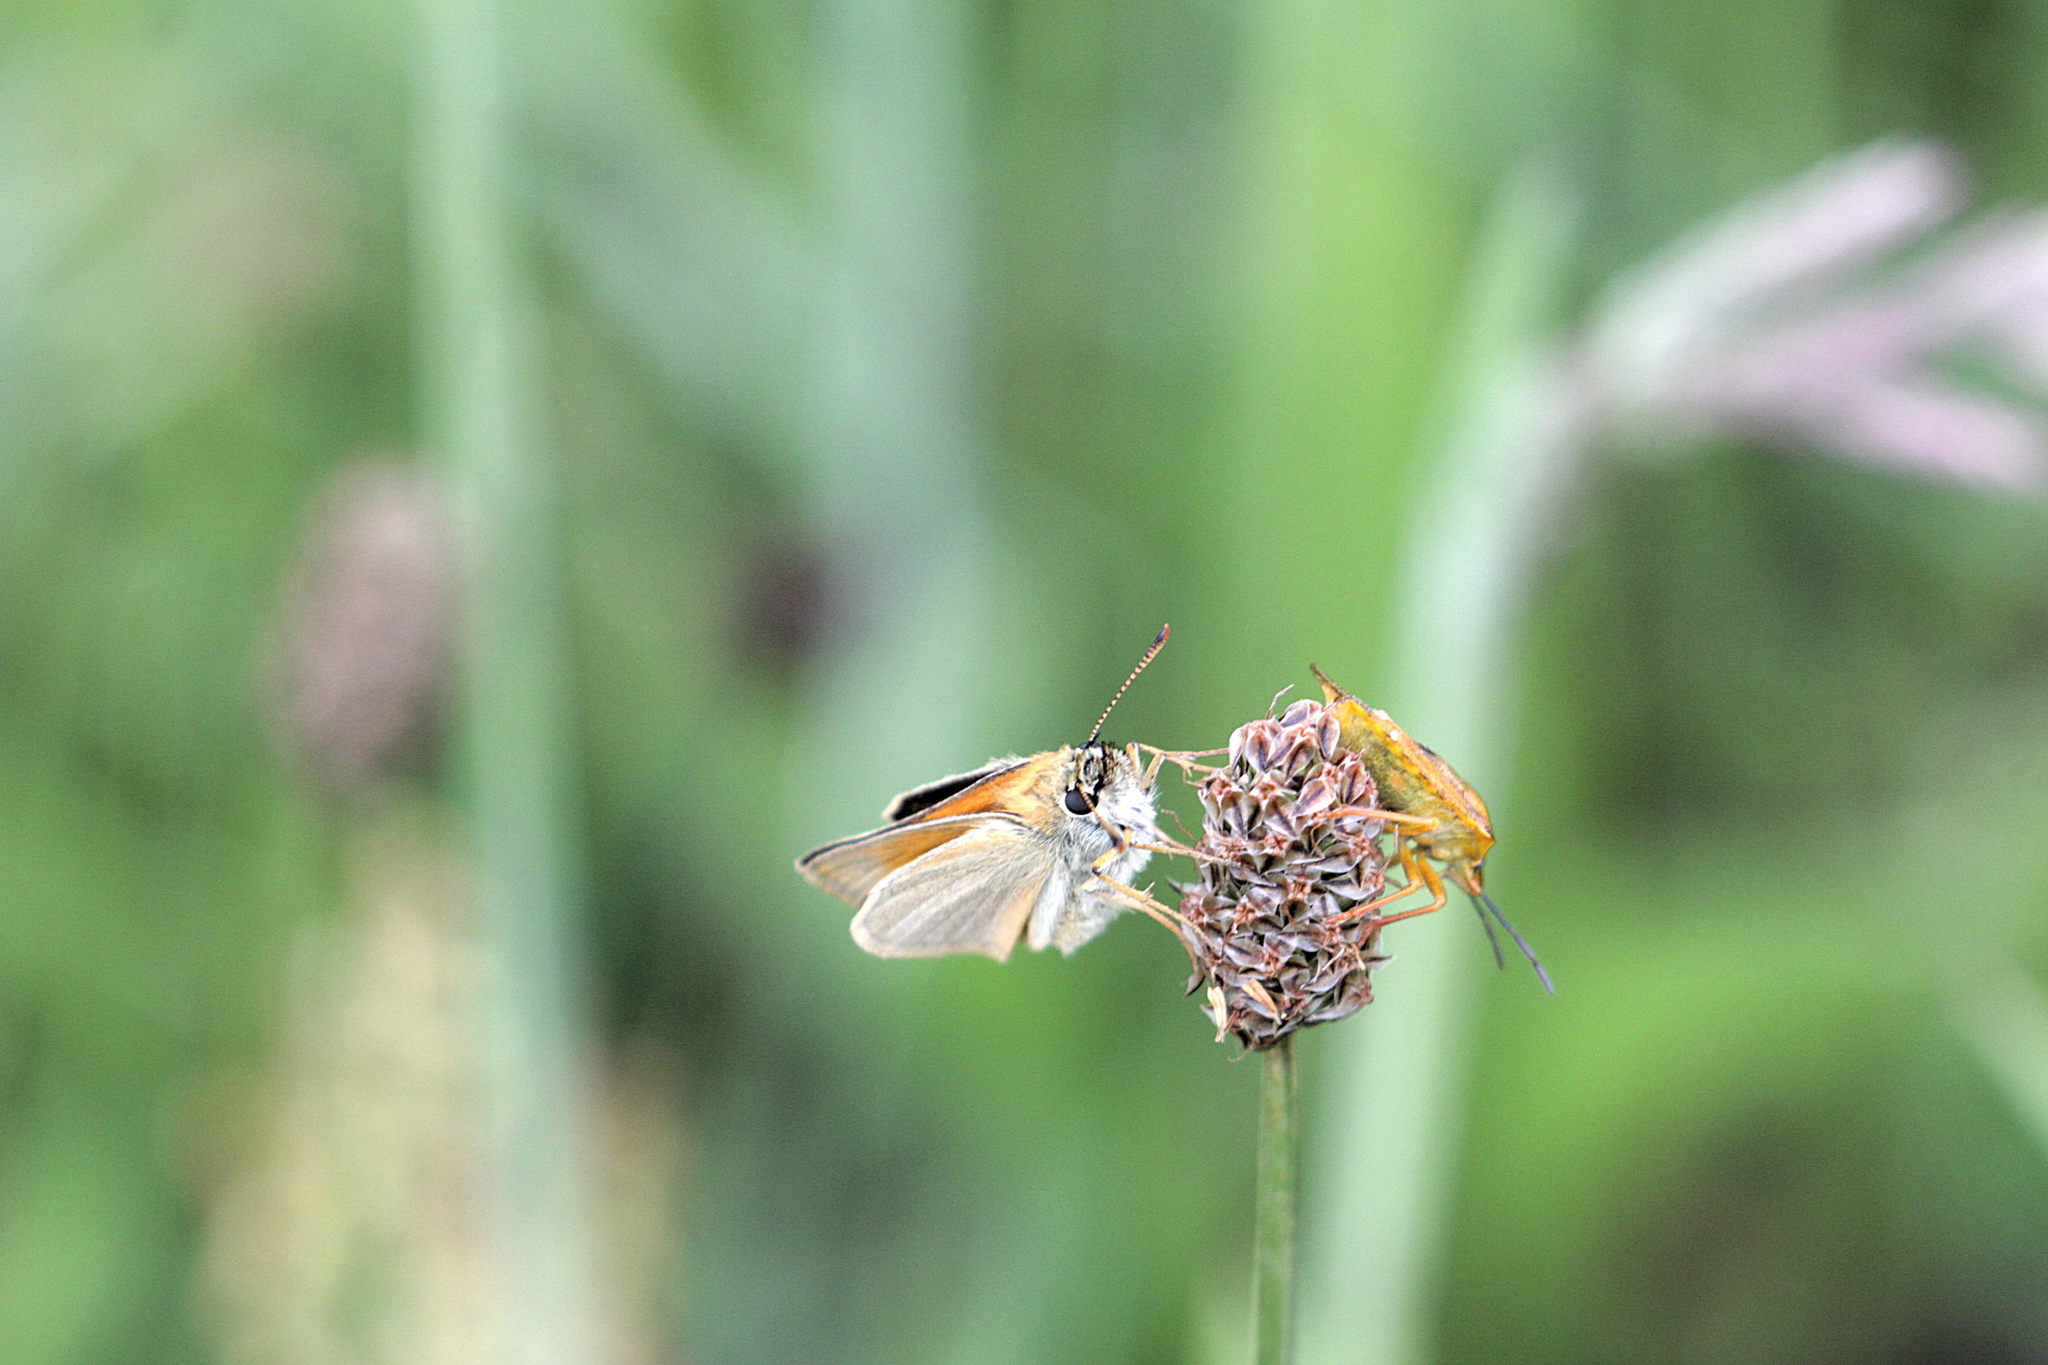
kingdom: Animalia
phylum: Arthropoda
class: Insecta
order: Hemiptera
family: Pentatomidae
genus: Carpocoris
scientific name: Carpocoris purpureipennis
